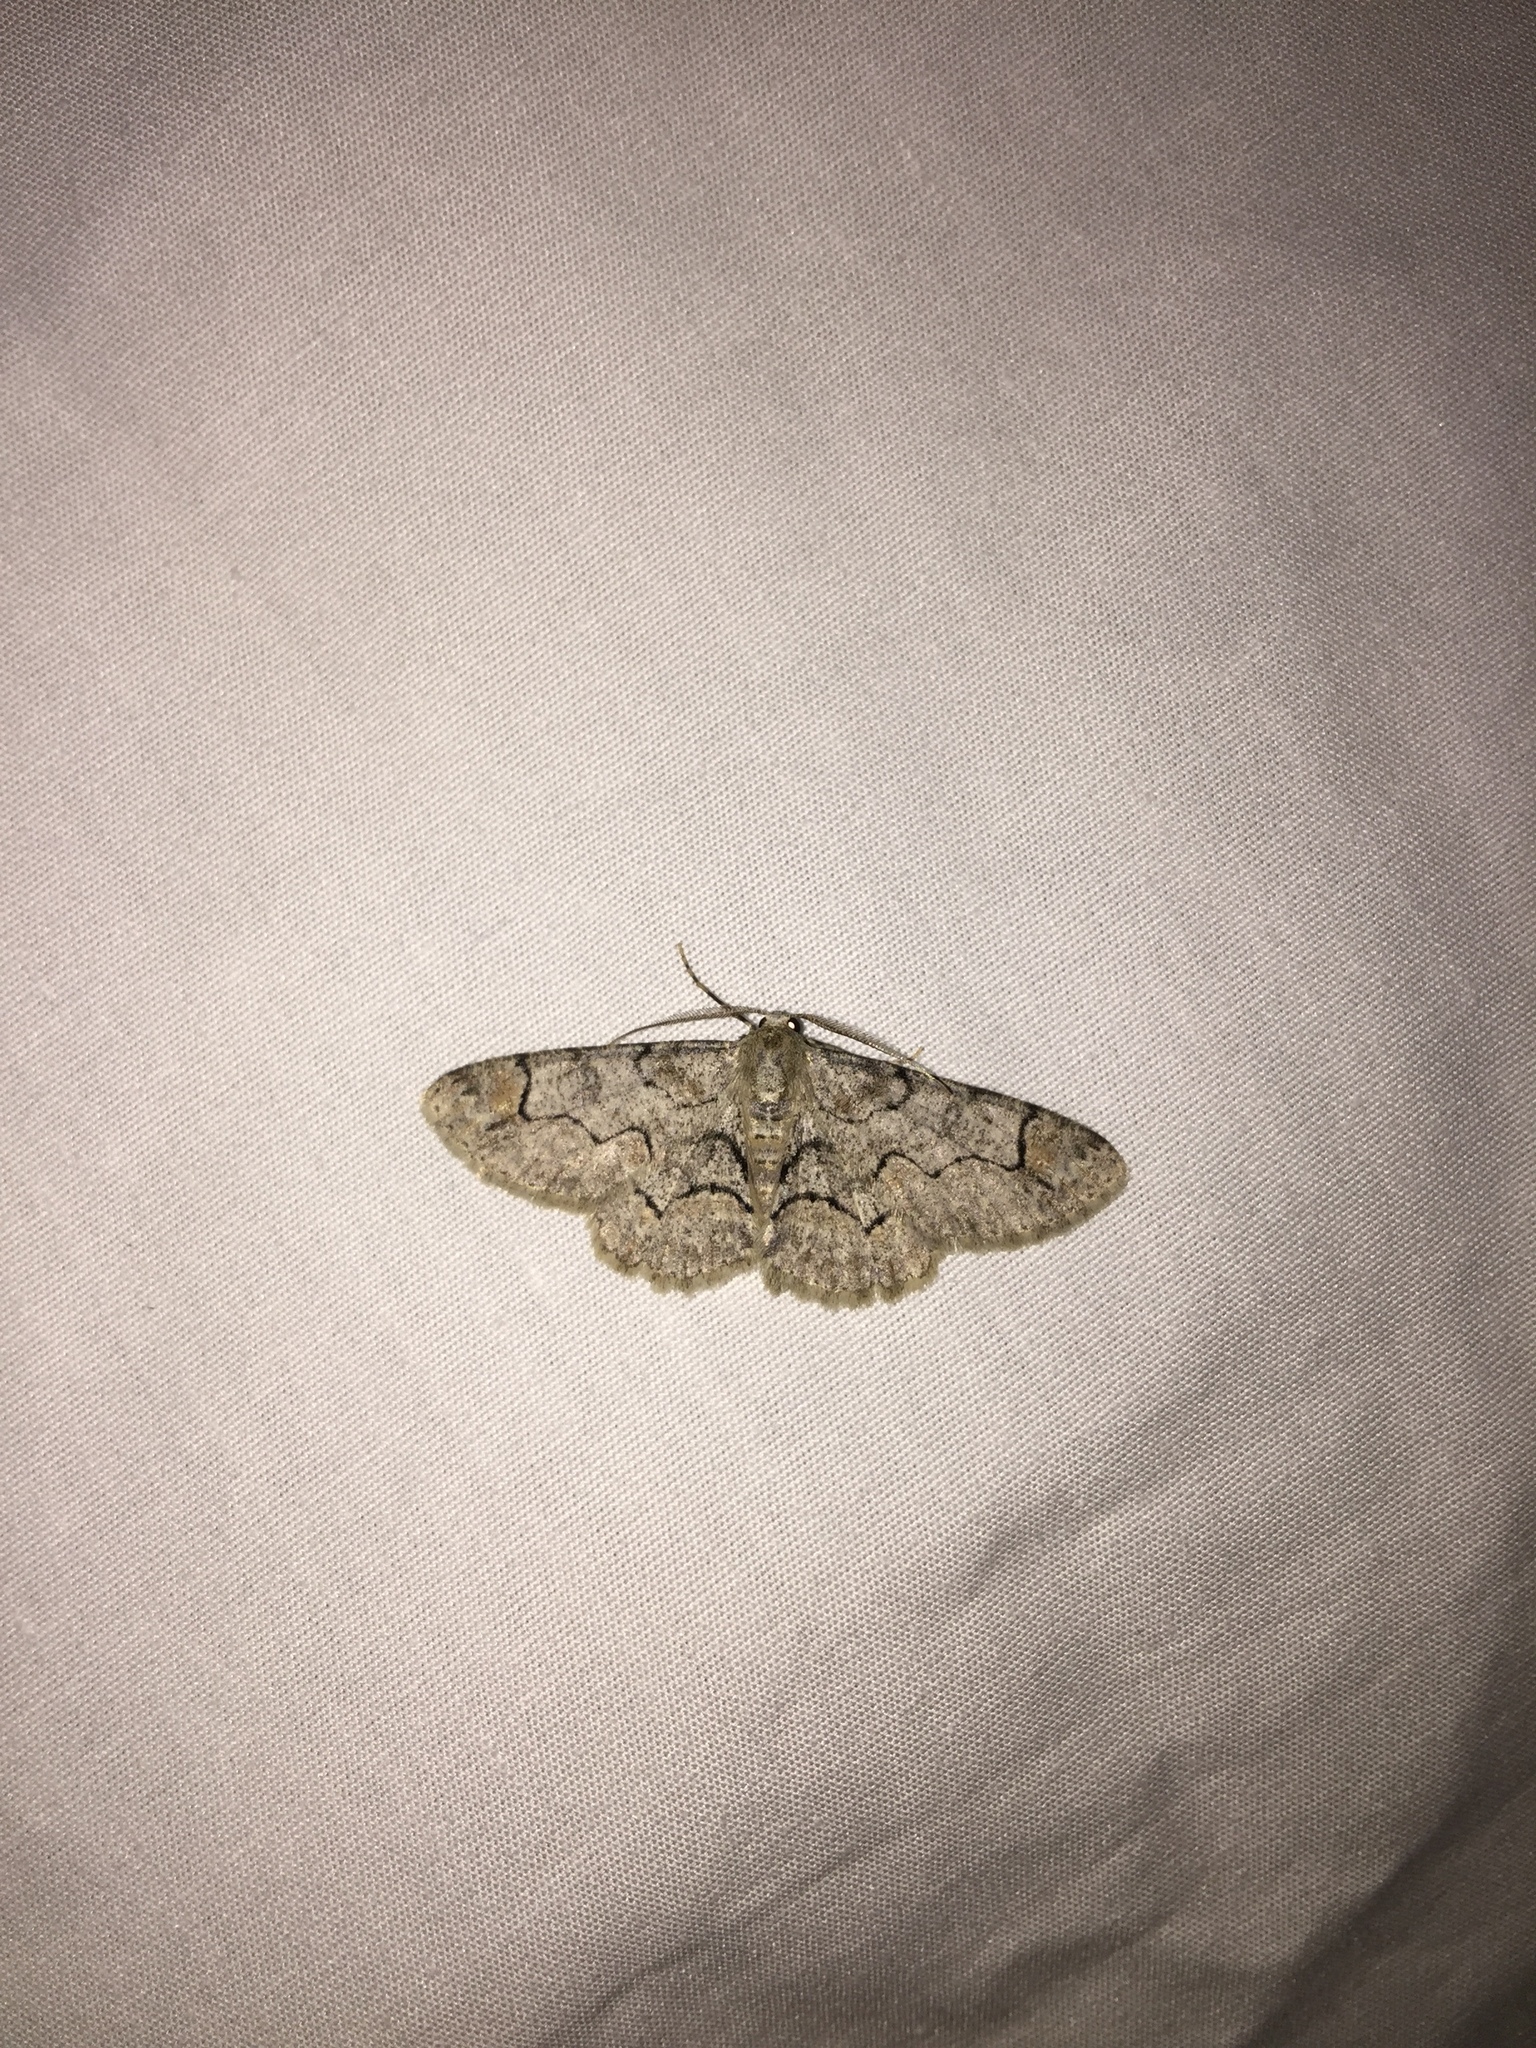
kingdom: Animalia
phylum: Arthropoda
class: Insecta
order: Lepidoptera
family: Geometridae
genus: Iridopsis
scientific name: Iridopsis larvaria
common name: Bent-line gray
